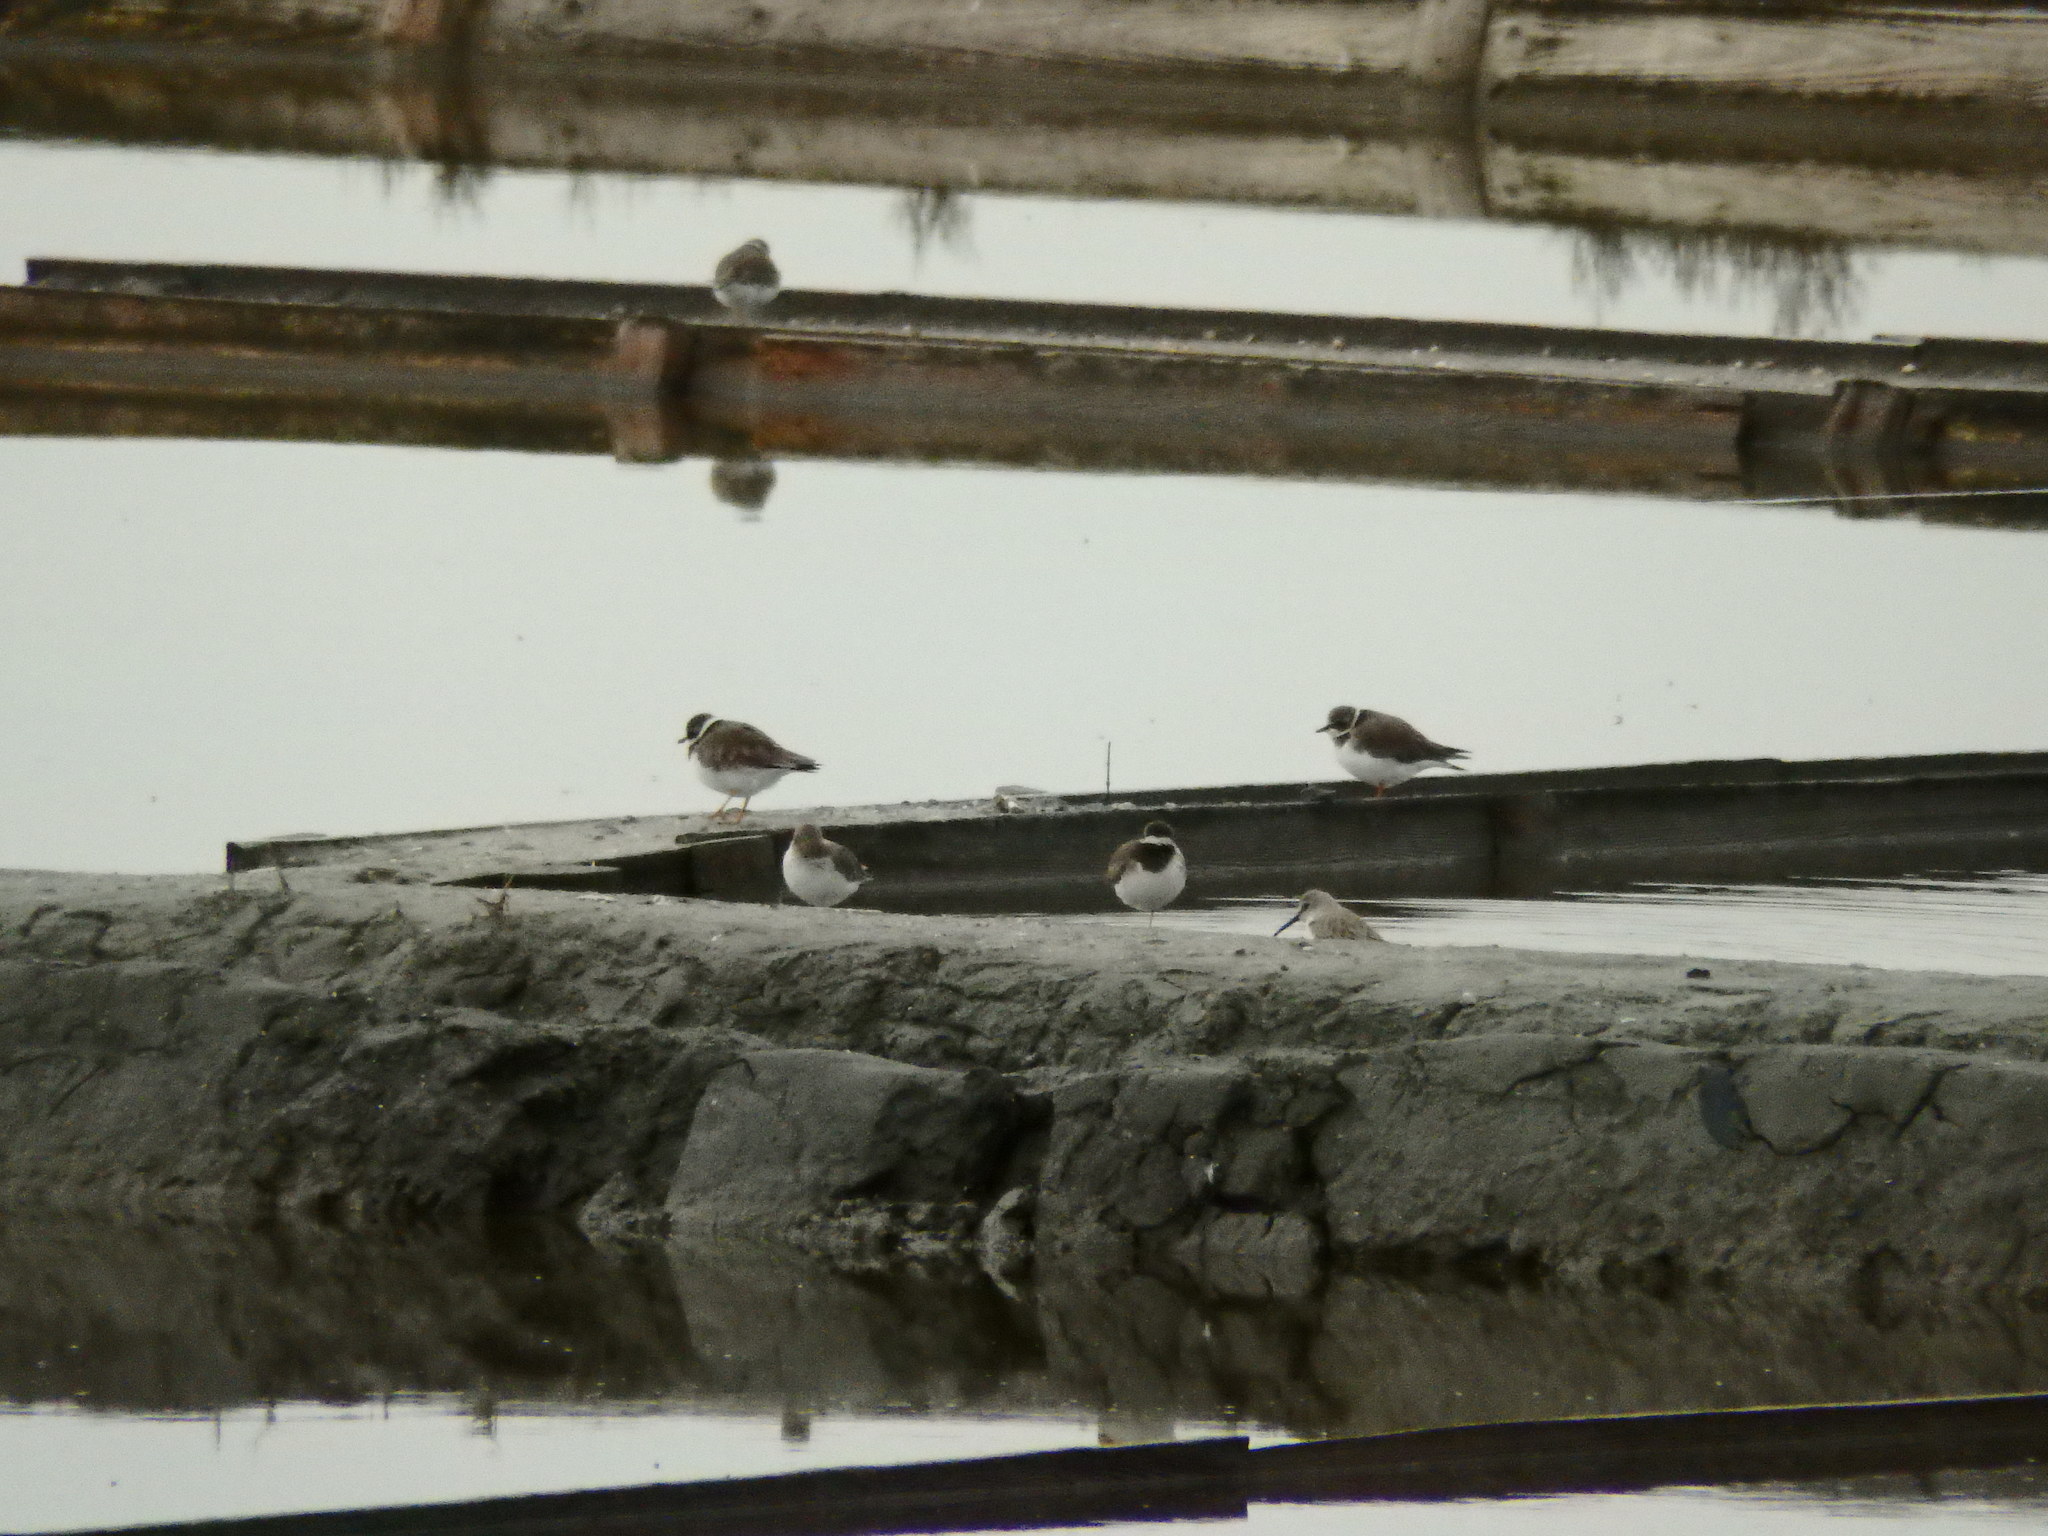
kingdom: Animalia
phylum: Chordata
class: Aves
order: Charadriiformes
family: Charadriidae
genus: Charadrius
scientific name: Charadrius hiaticula
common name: Common ringed plover
